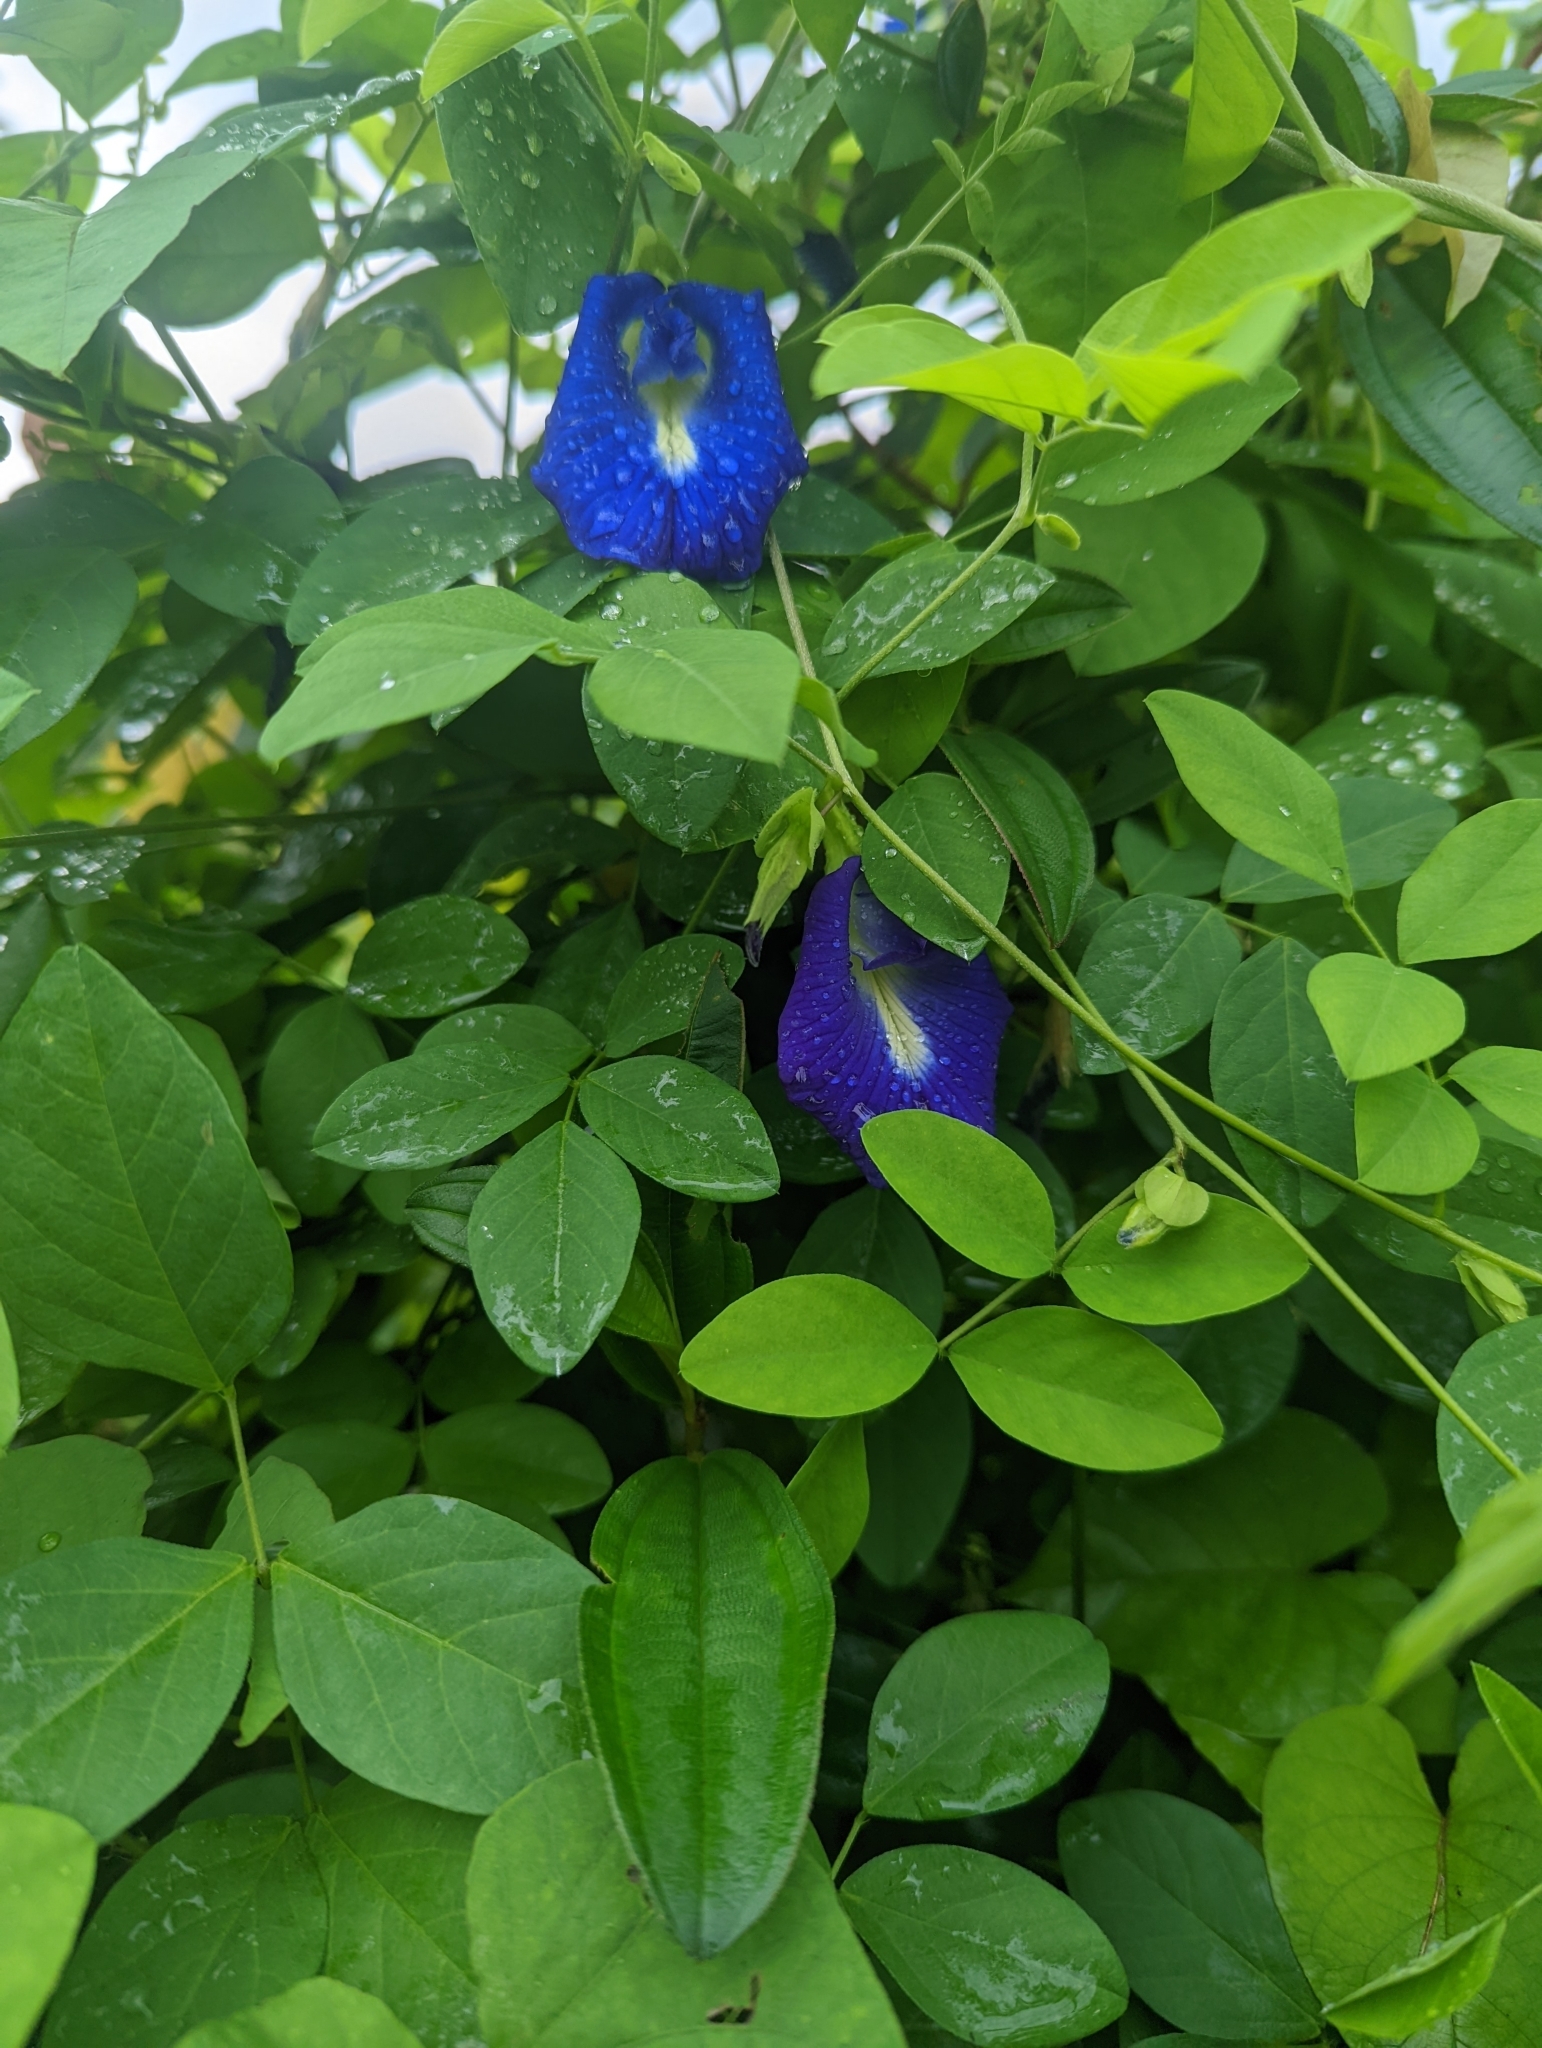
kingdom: Plantae
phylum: Tracheophyta
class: Magnoliopsida
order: Fabales
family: Fabaceae
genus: Clitoria
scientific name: Clitoria ternatea
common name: Asian pigeonwings
